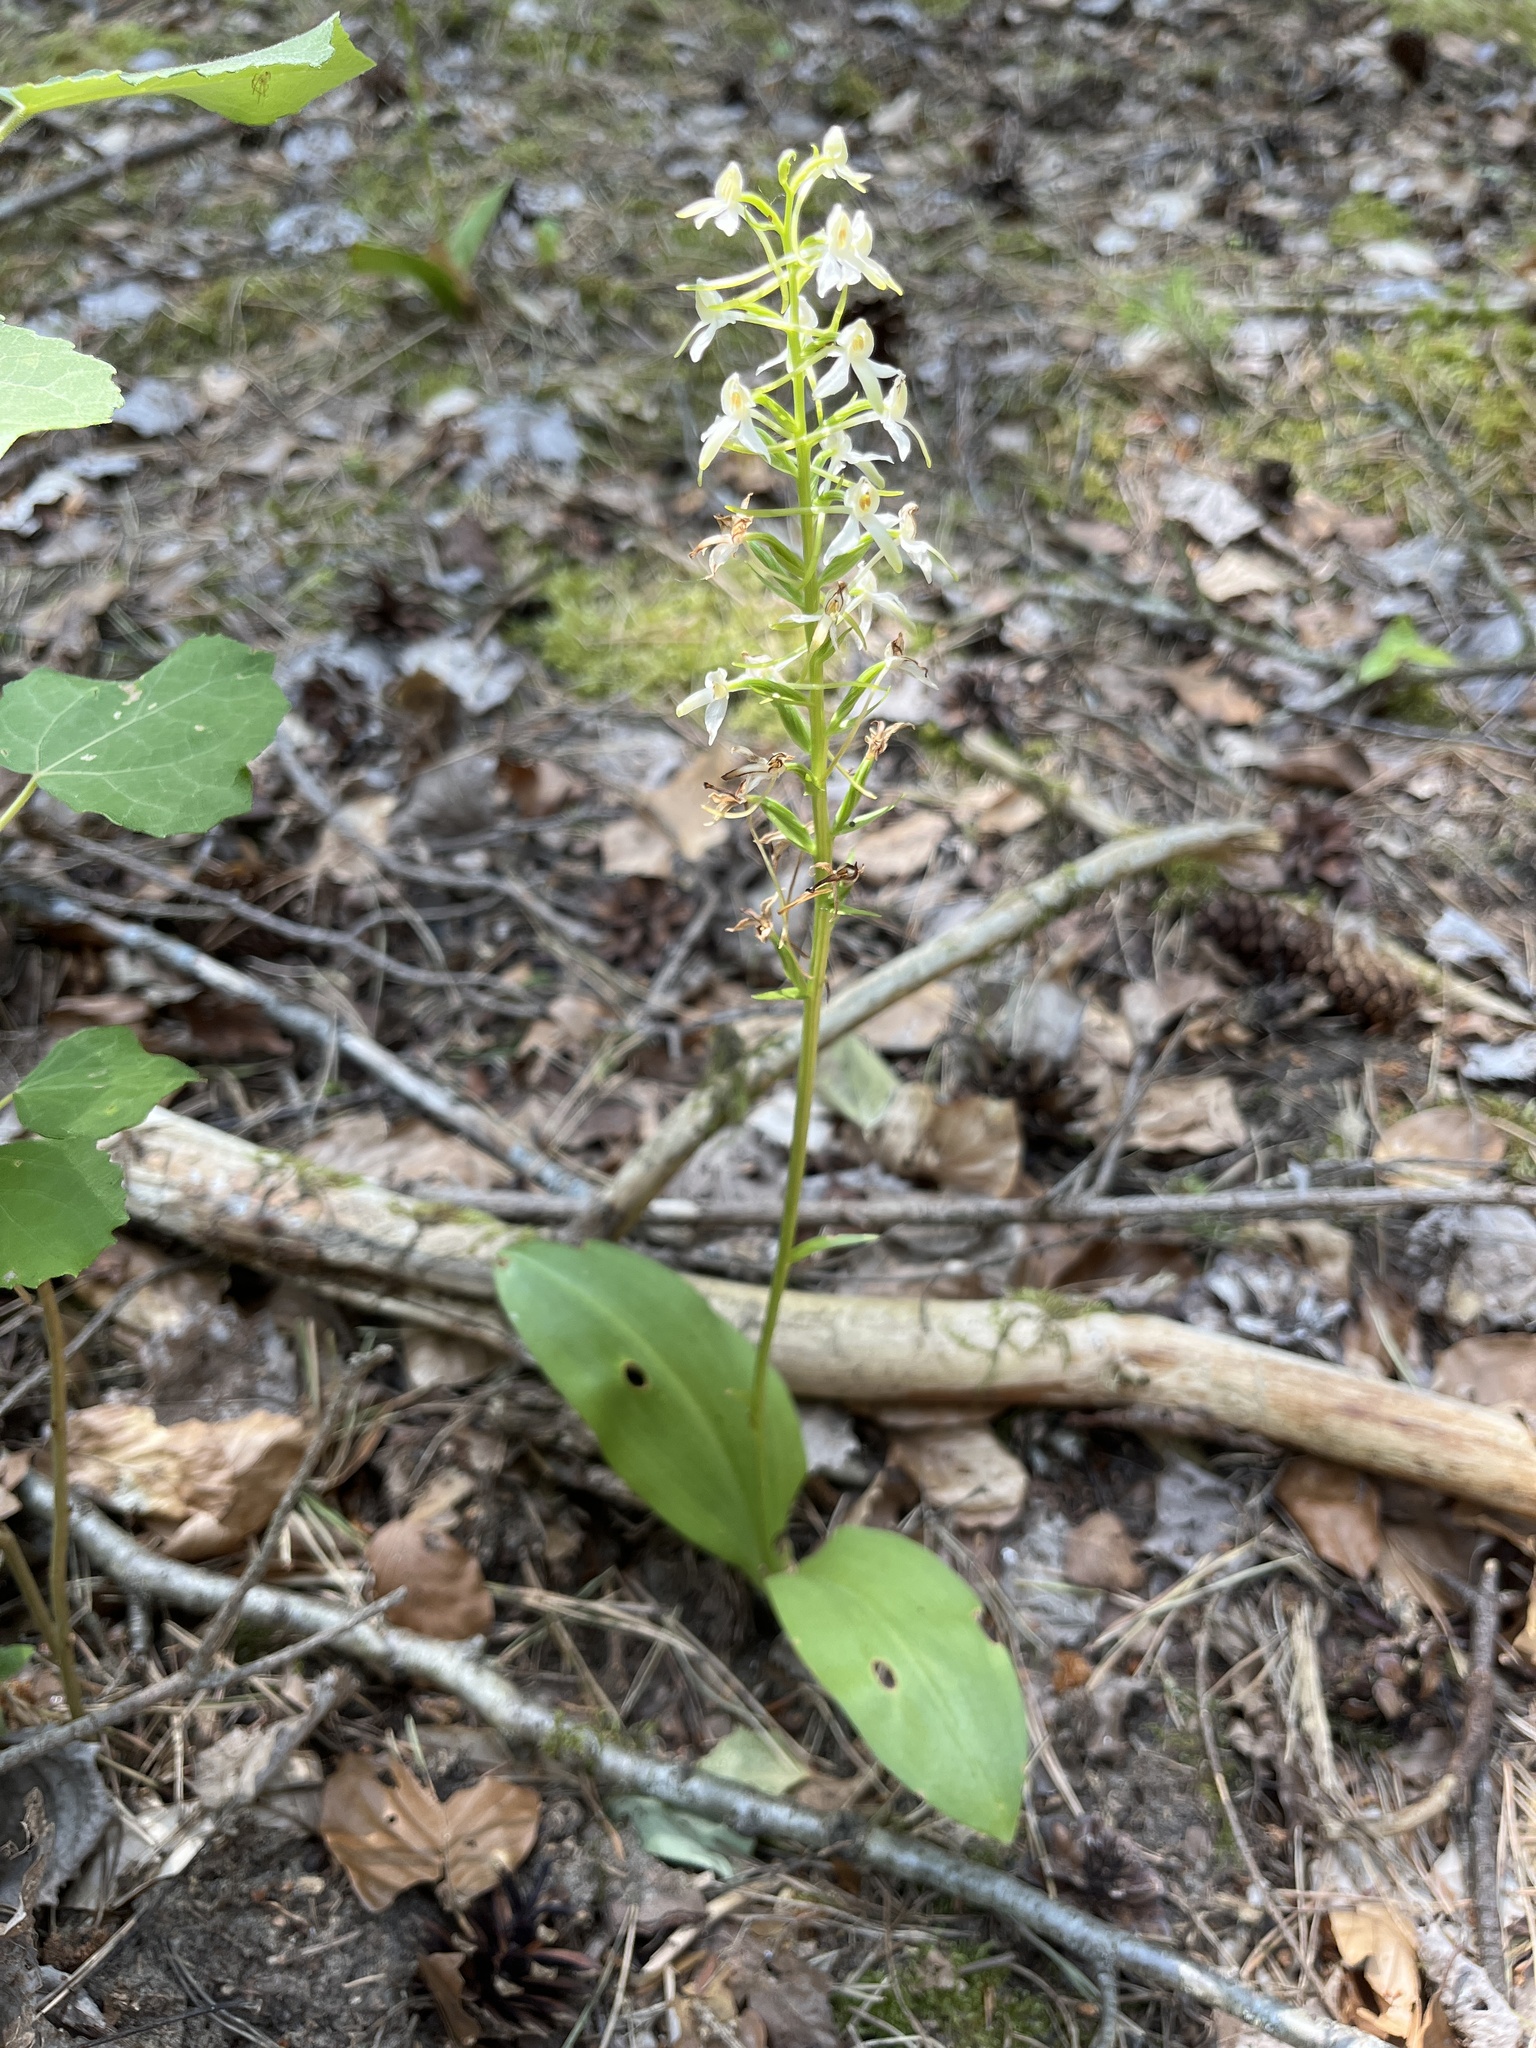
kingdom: Plantae
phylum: Tracheophyta
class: Liliopsida
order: Asparagales
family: Orchidaceae
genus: Platanthera
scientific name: Platanthera bifolia
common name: Lesser butterfly-orchid
